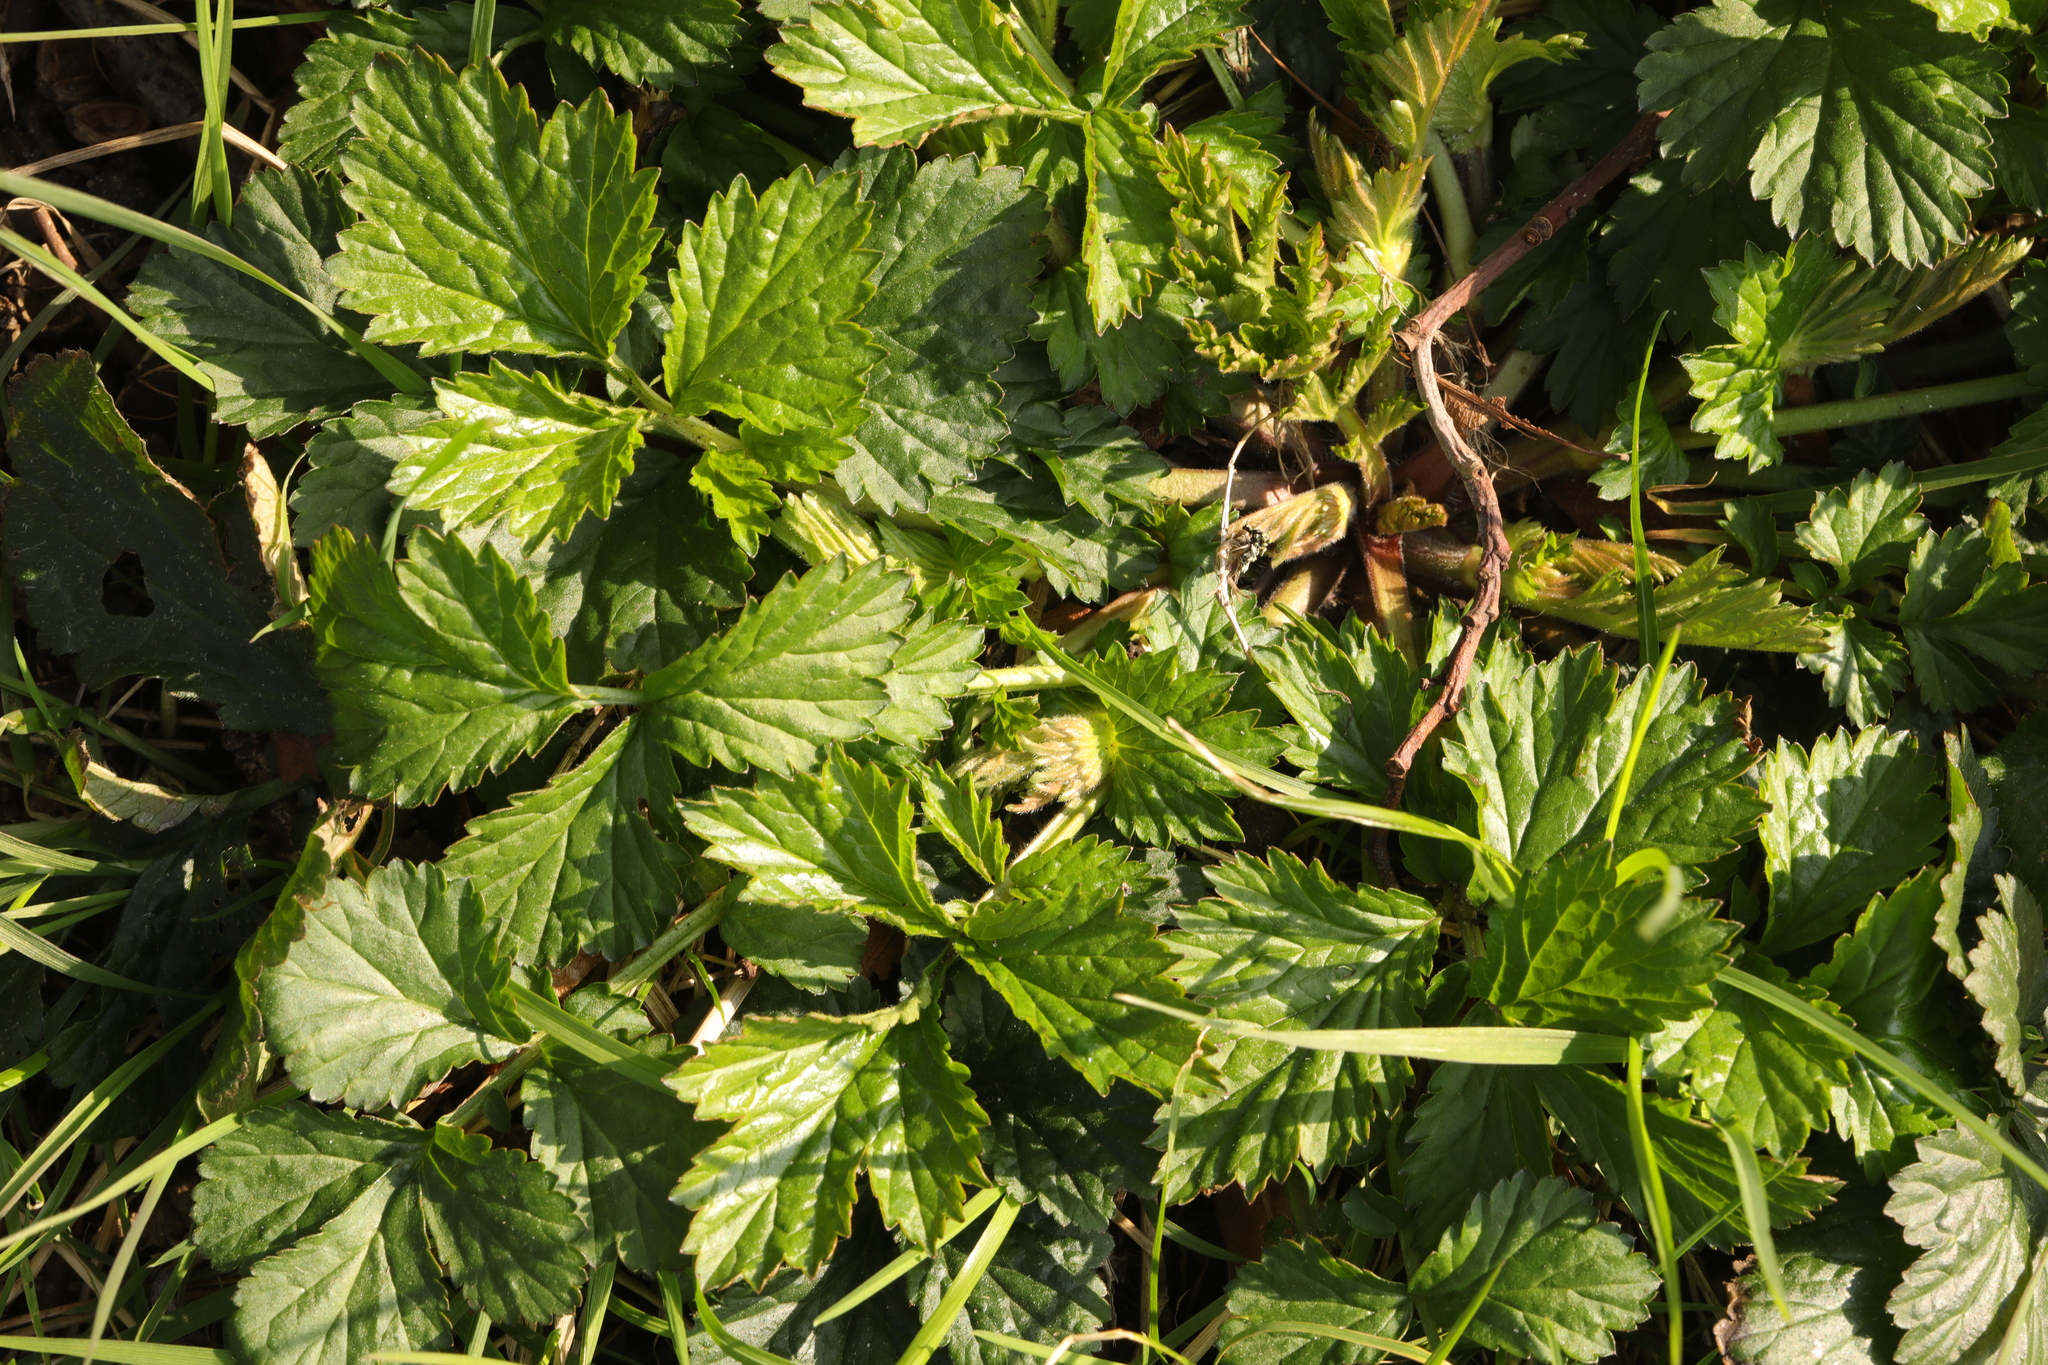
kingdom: Plantae
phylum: Tracheophyta
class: Magnoliopsida
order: Rosales
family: Rosaceae
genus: Geum
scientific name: Geum urbanum
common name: Wood avens
